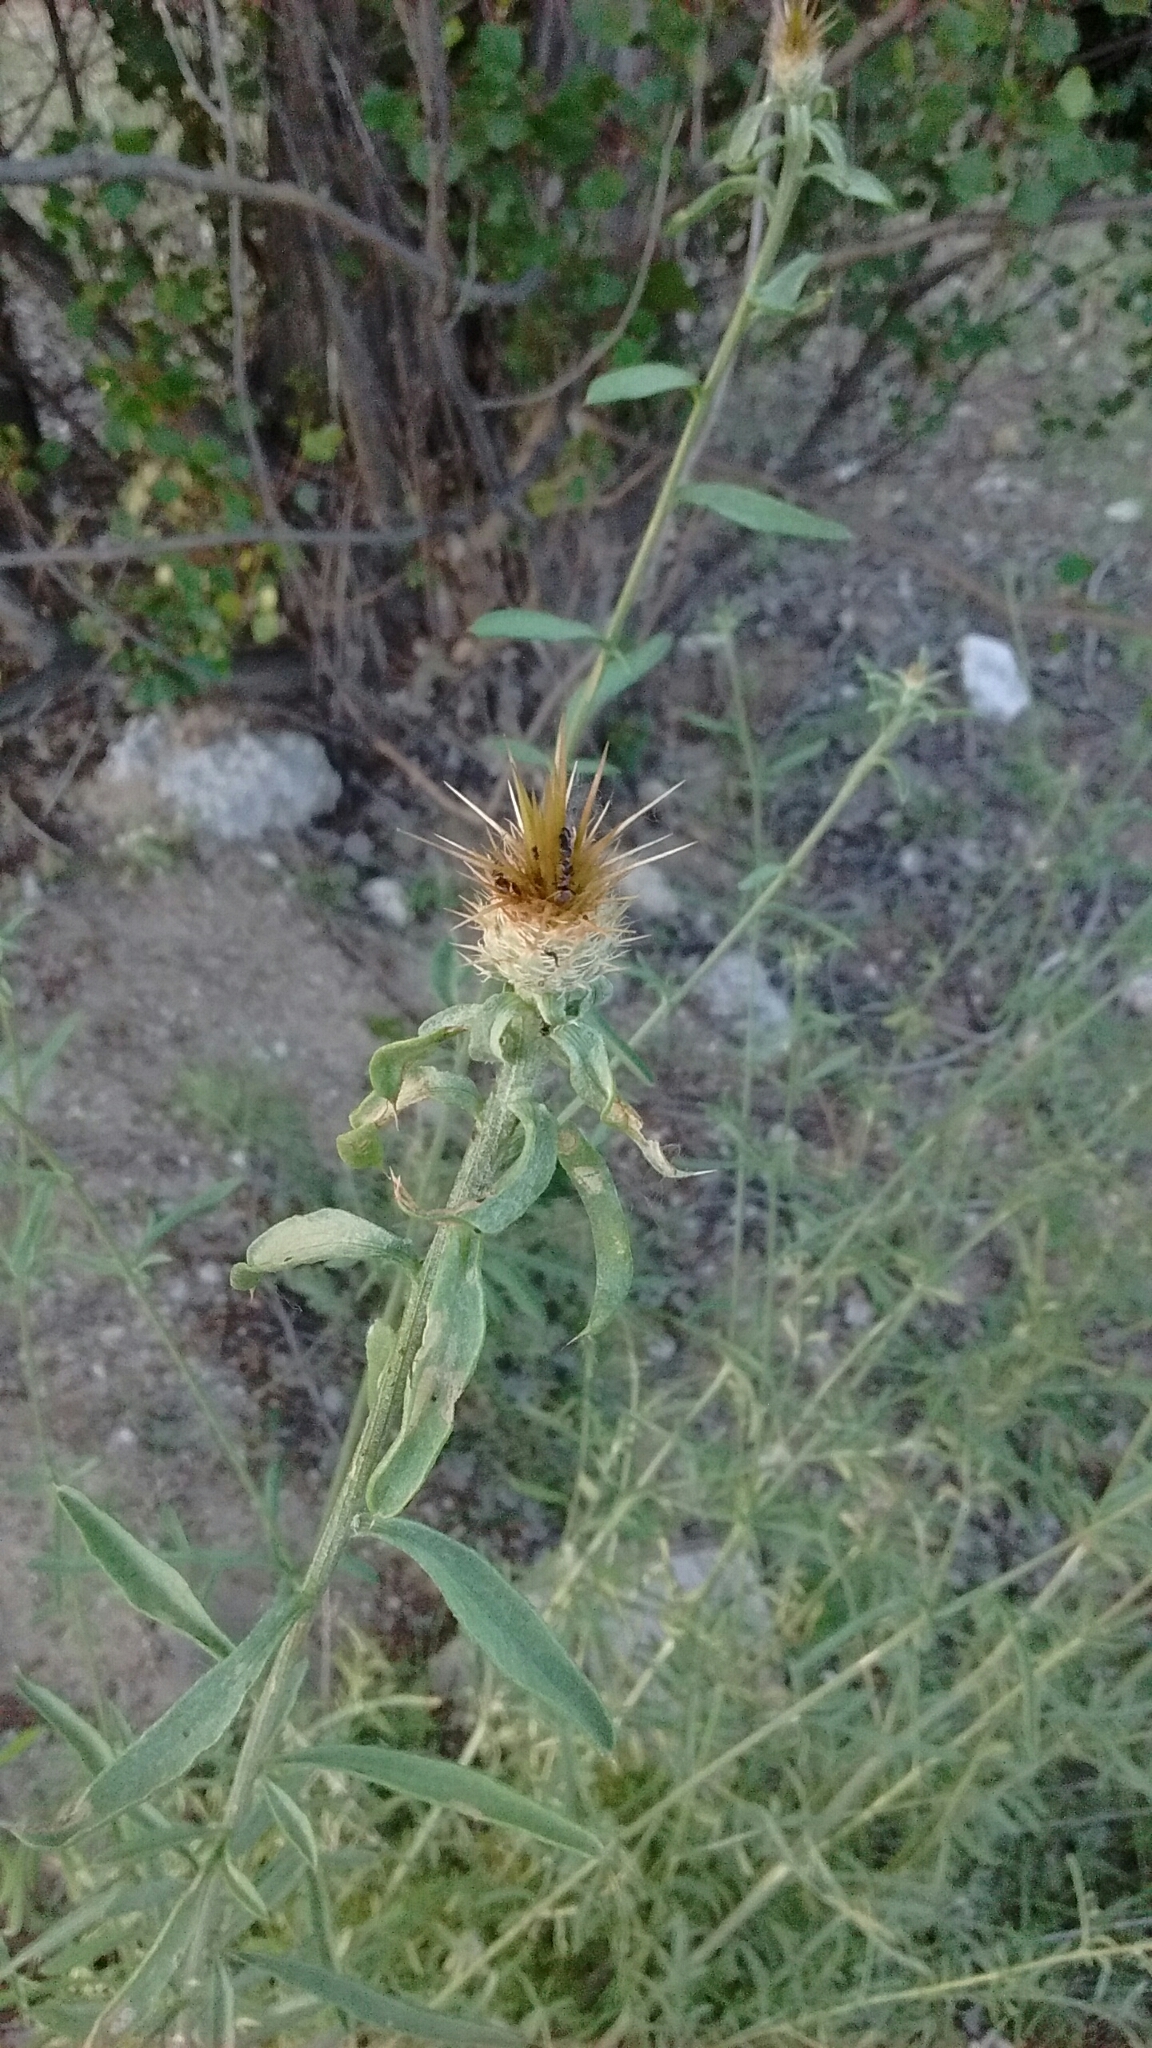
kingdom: Plantae
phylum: Tracheophyta
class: Magnoliopsida
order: Asterales
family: Asteraceae
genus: Centaurea
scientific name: Centaurea ornata
